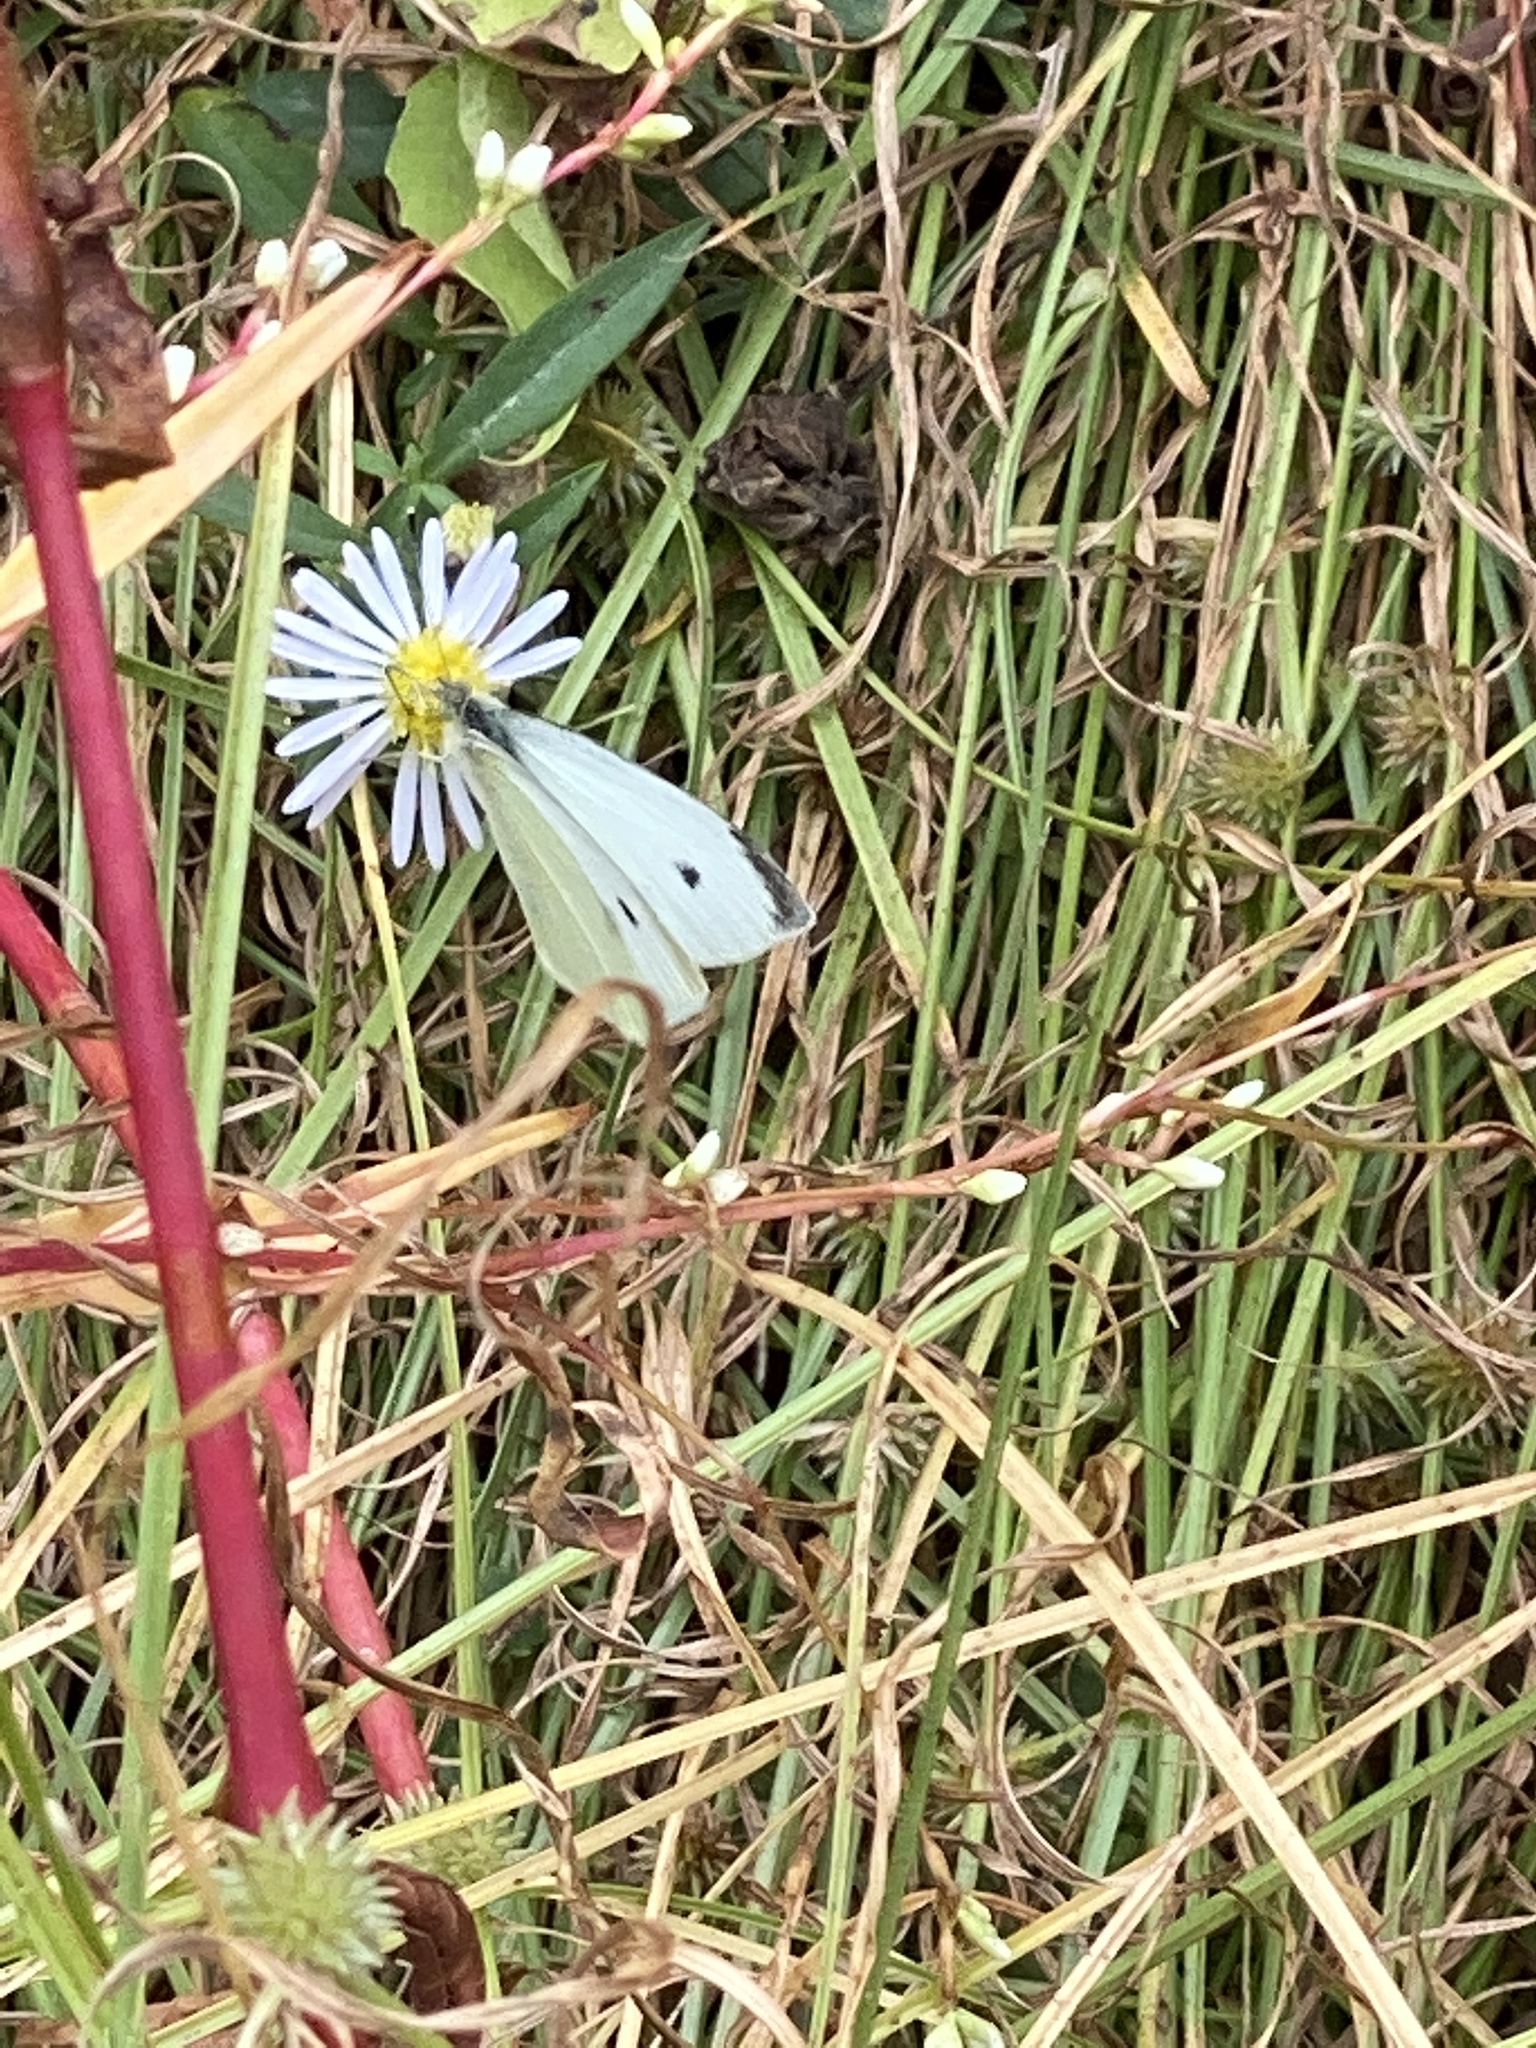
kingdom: Animalia
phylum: Arthropoda
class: Insecta
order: Lepidoptera
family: Pieridae
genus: Pieris
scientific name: Pieris rapae
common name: Small white
